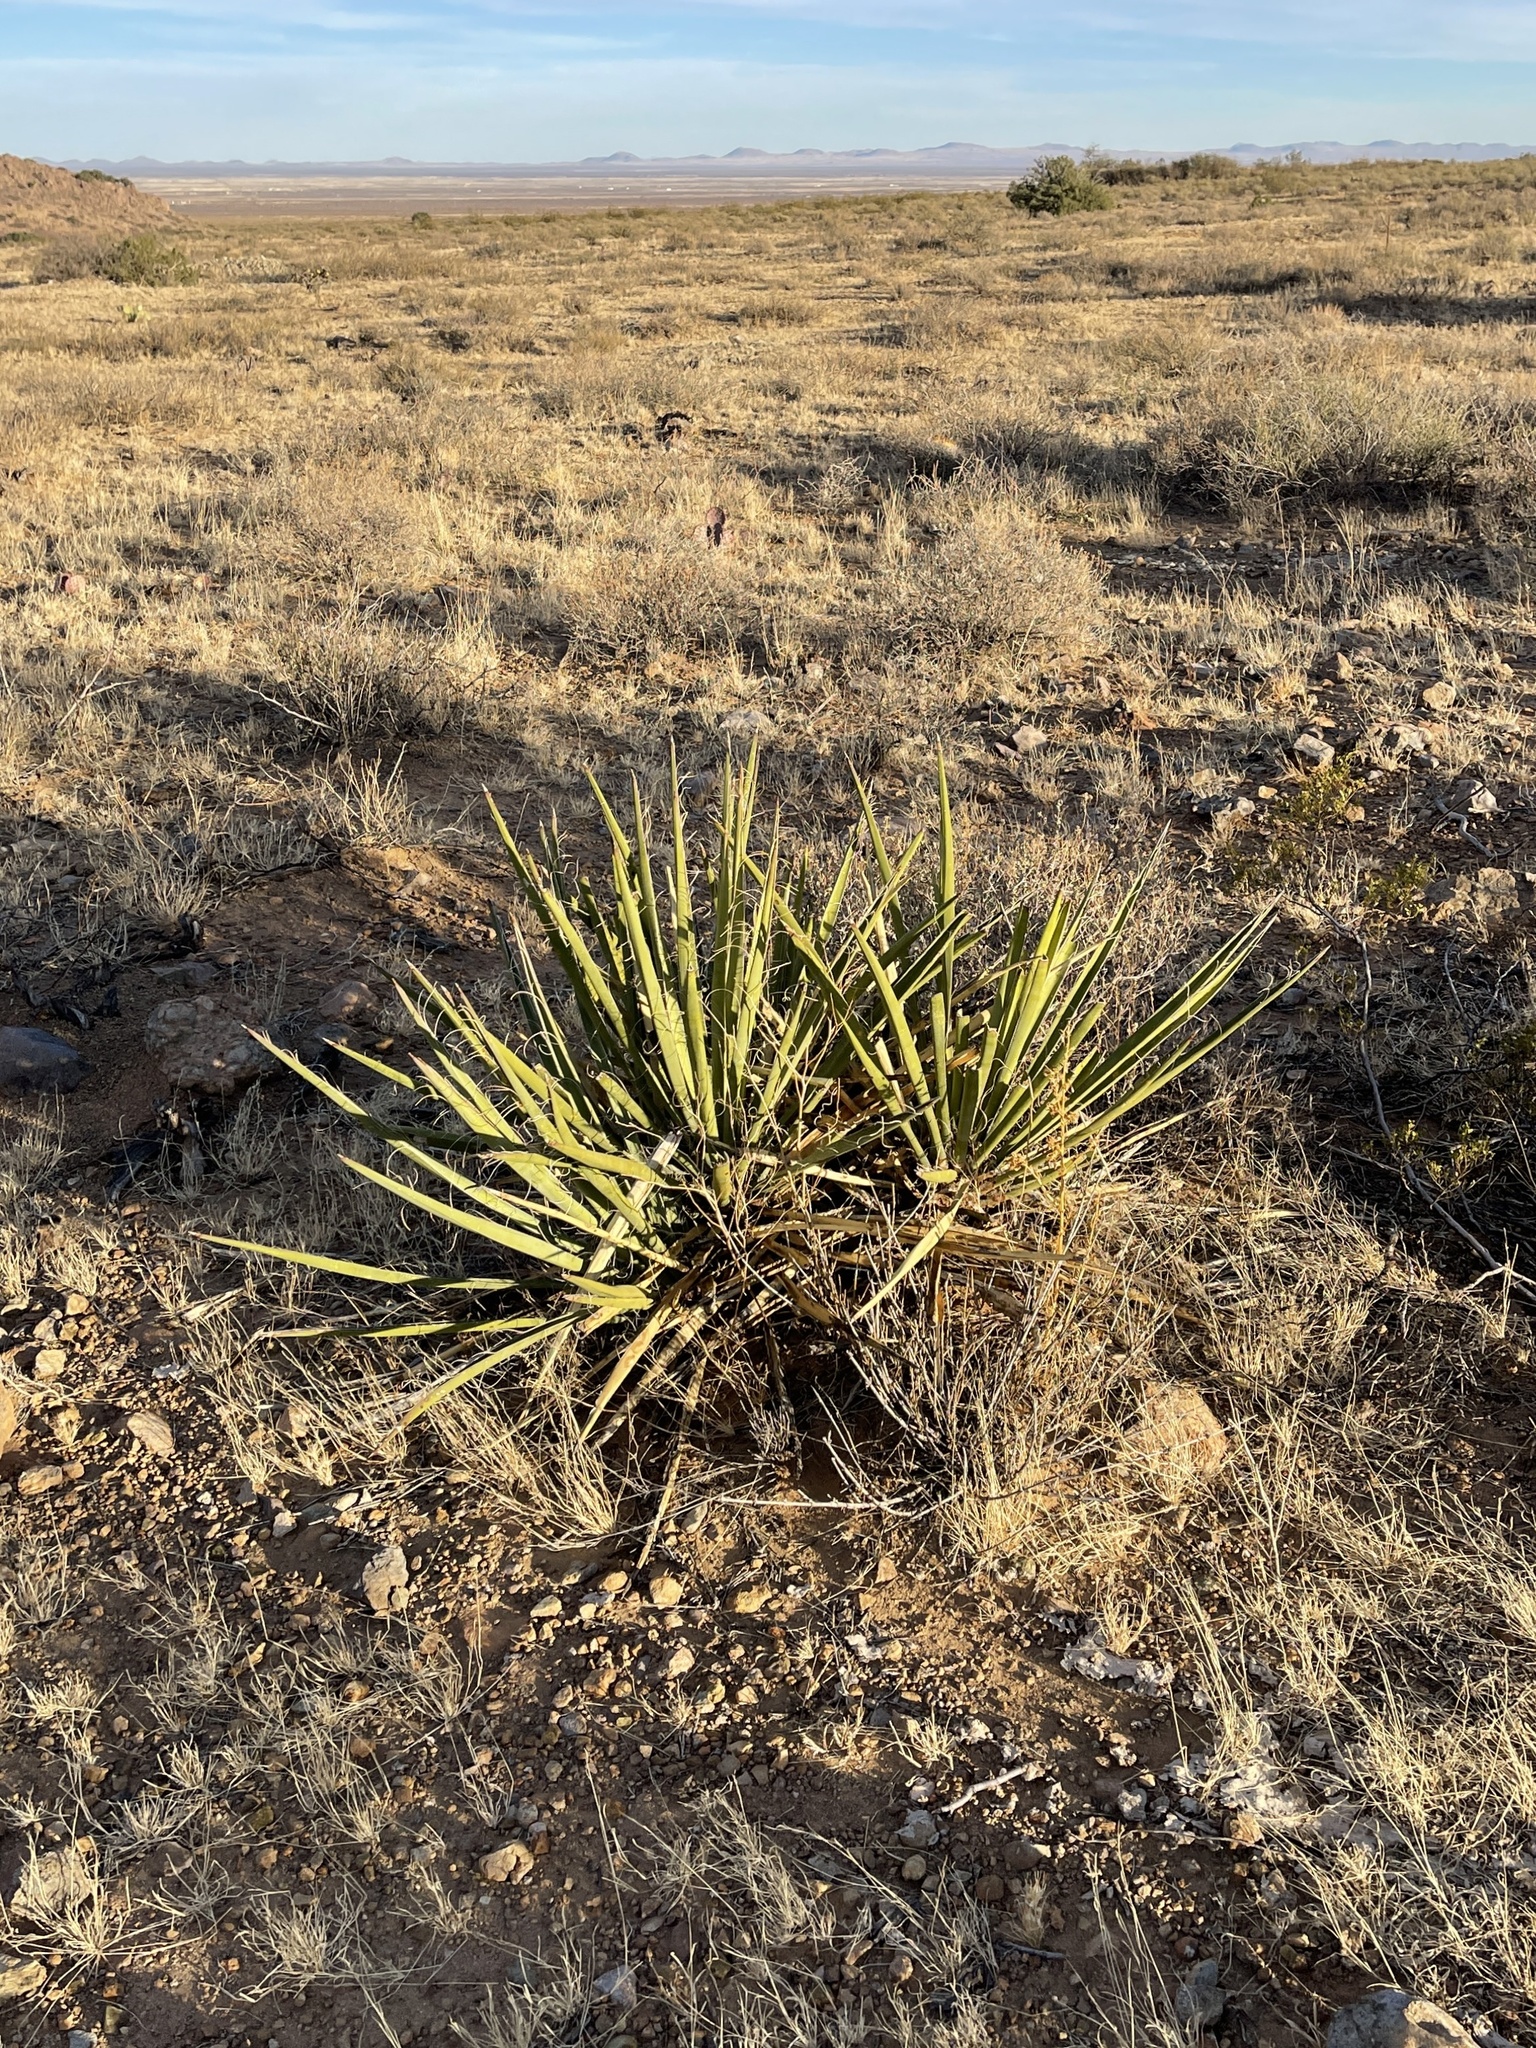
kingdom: Plantae
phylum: Tracheophyta
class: Liliopsida
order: Asparagales
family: Asparagaceae
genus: Yucca
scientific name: Yucca baccata
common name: Banana yucca
